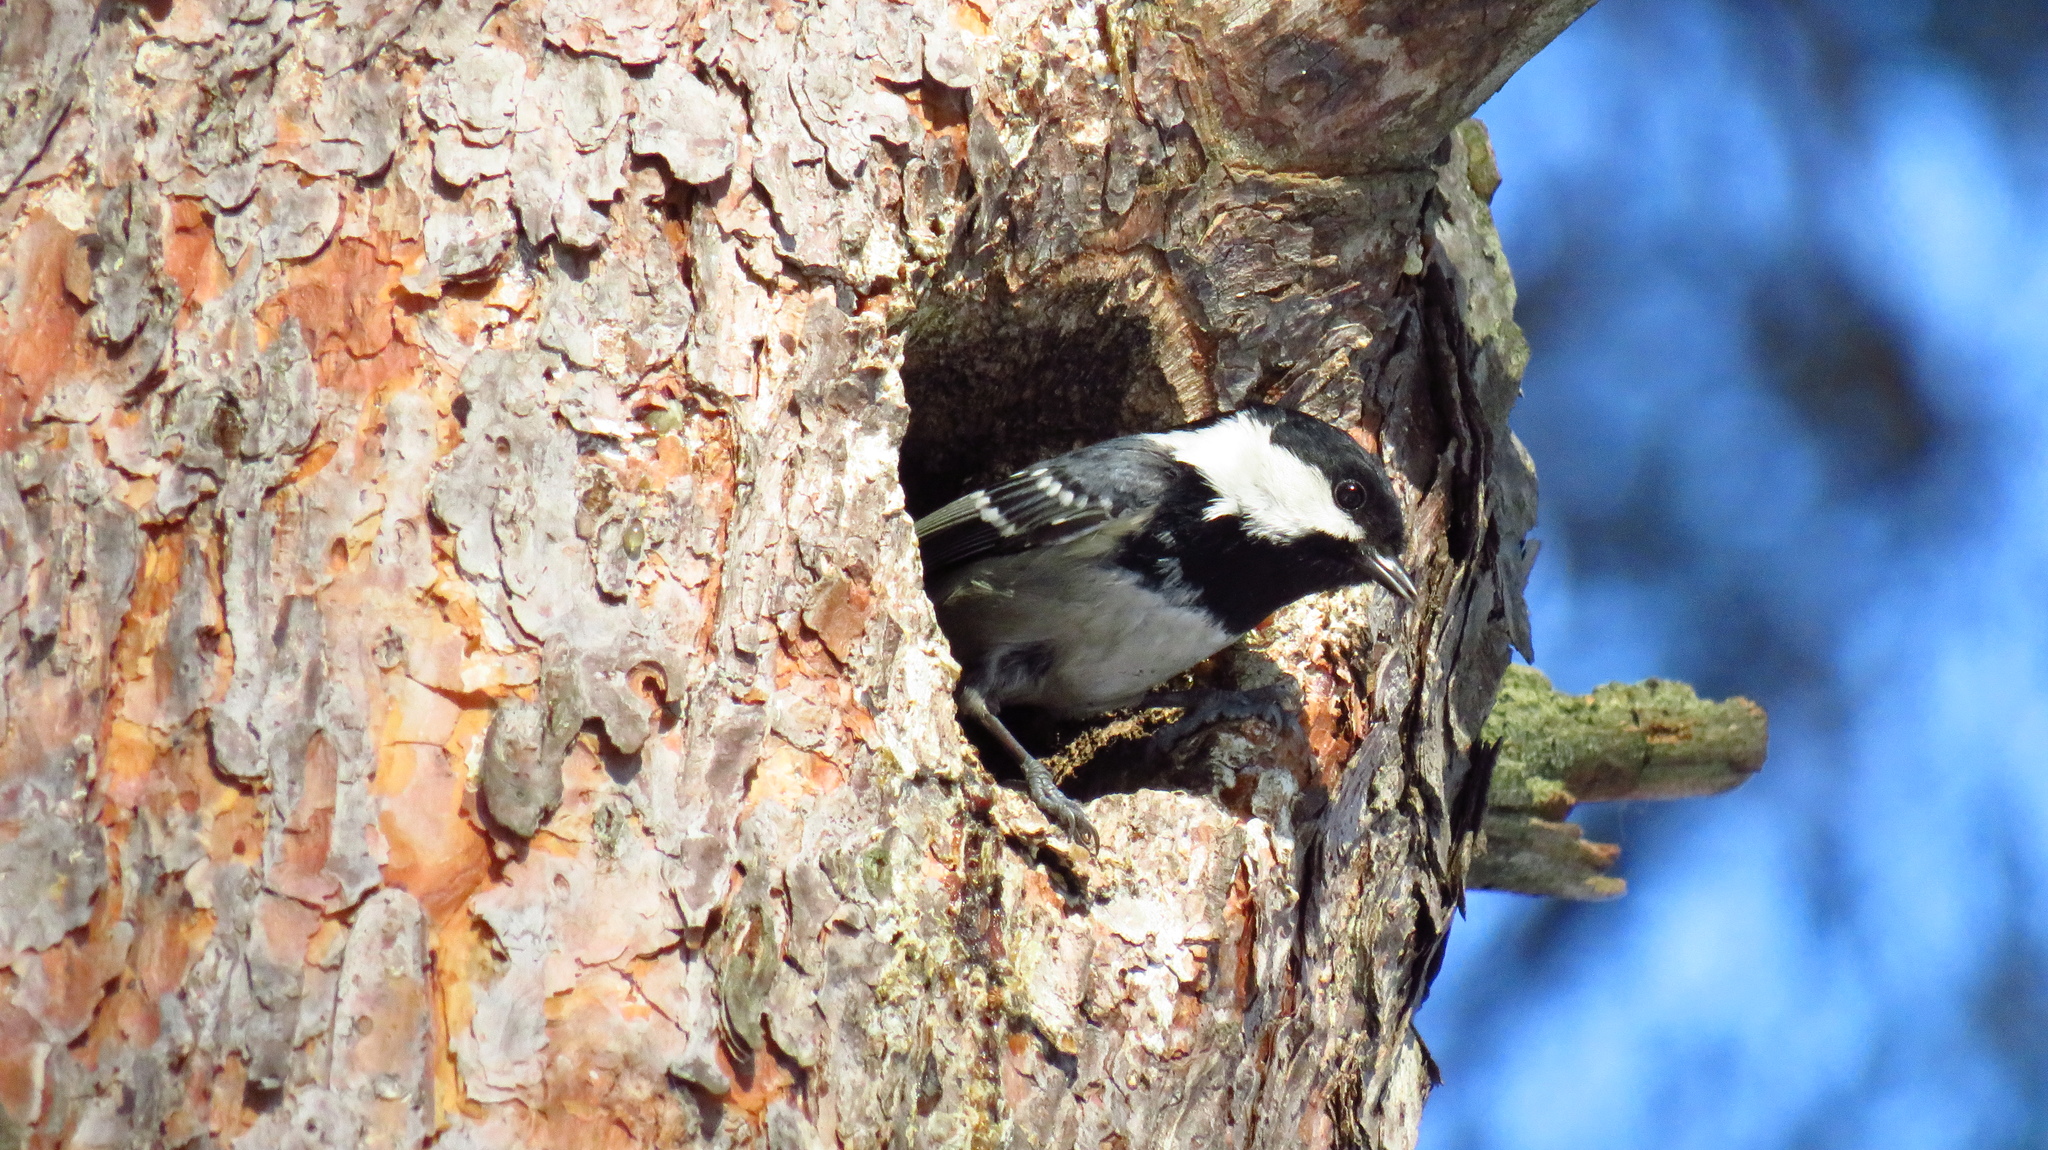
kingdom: Animalia
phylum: Chordata
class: Aves
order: Passeriformes
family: Paridae
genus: Periparus
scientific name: Periparus ater
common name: Coal tit
